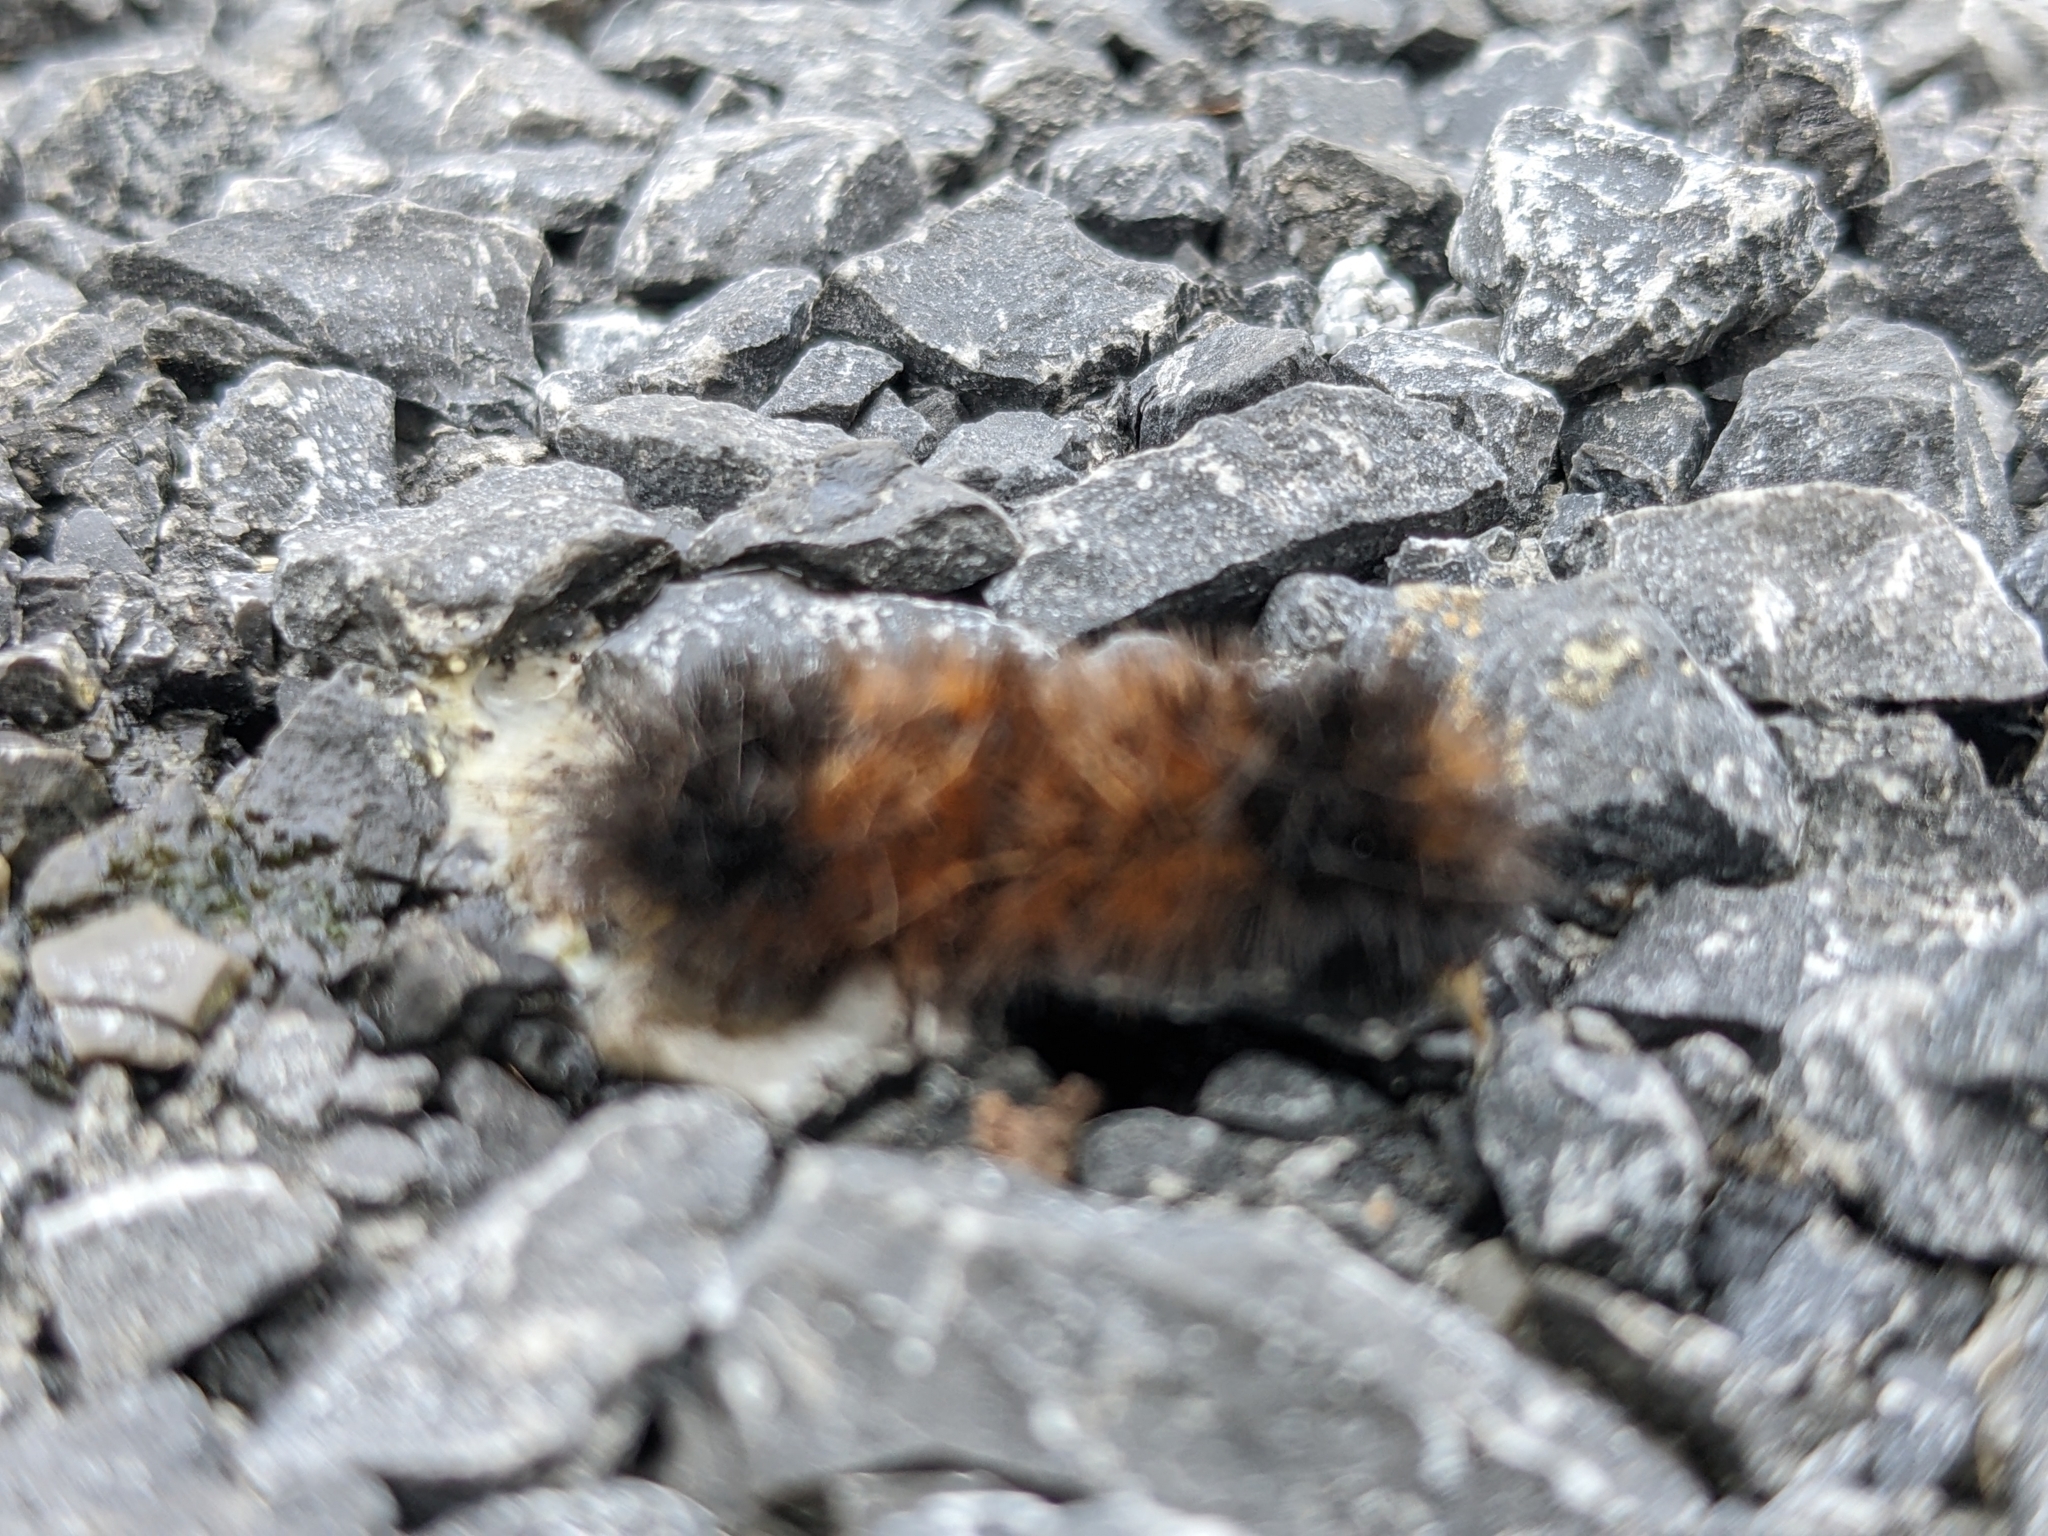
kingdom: Animalia
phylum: Arthropoda
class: Insecta
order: Lepidoptera
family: Erebidae
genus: Pyrrharctia
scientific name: Pyrrharctia isabella
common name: Isabella tiger moth
